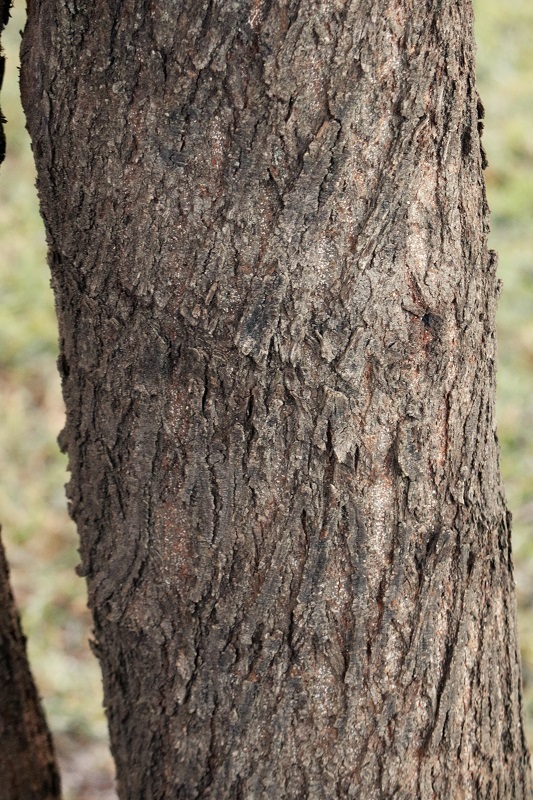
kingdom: Plantae
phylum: Tracheophyta
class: Magnoliopsida
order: Fabales
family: Fabaceae
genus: Vachellia
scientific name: Vachellia karroo
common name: Sweet thorn
